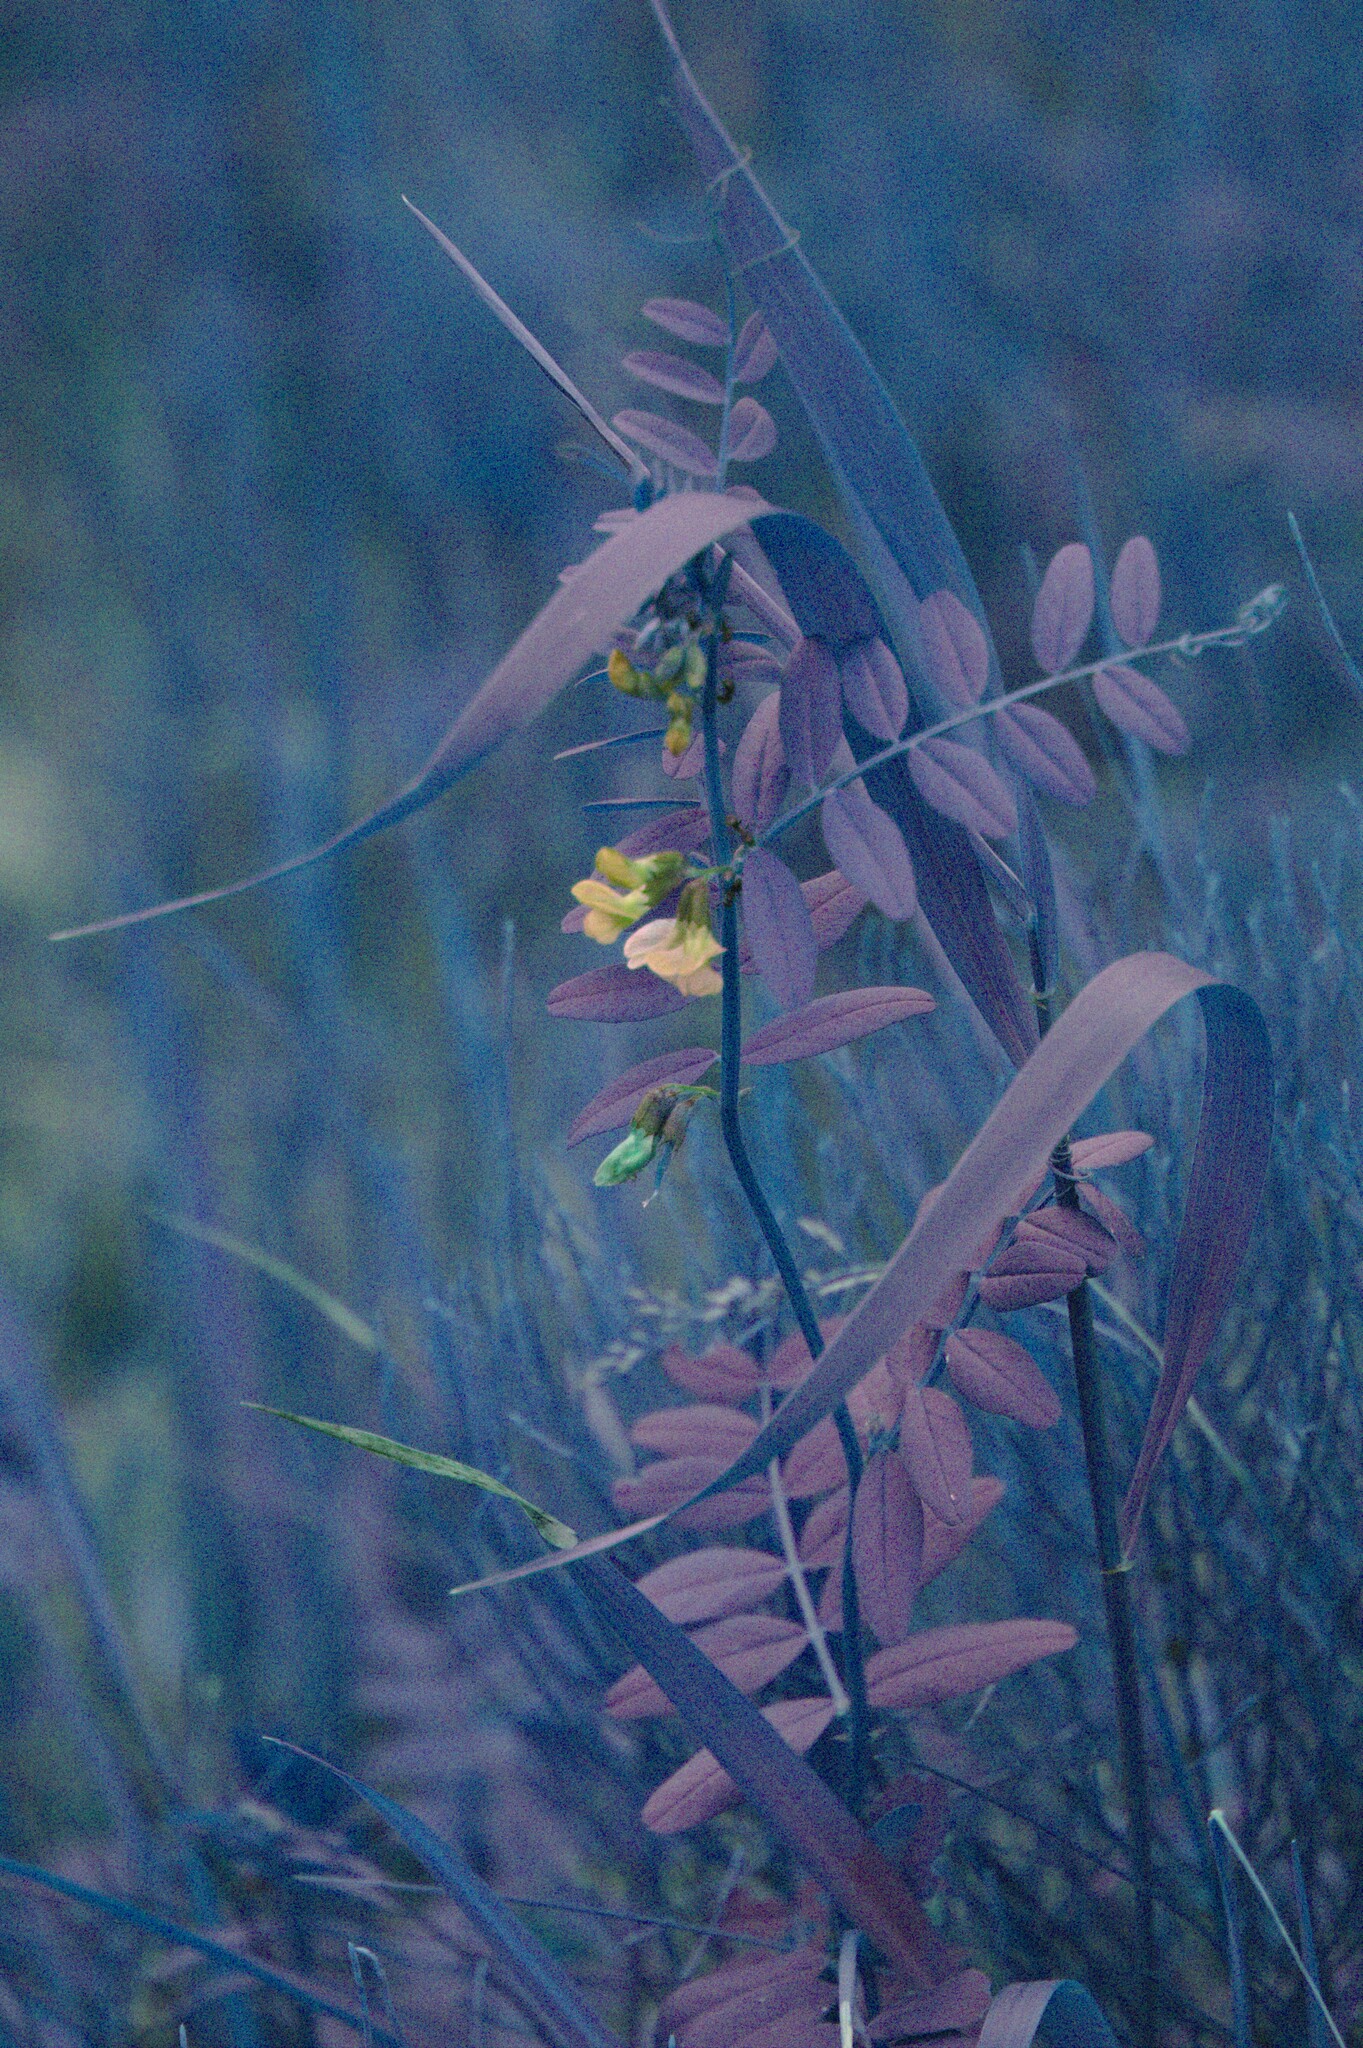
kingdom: Plantae
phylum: Tracheophyta
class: Magnoliopsida
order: Fabales
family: Fabaceae
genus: Vicia
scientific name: Vicia sepium
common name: Bush vetch
